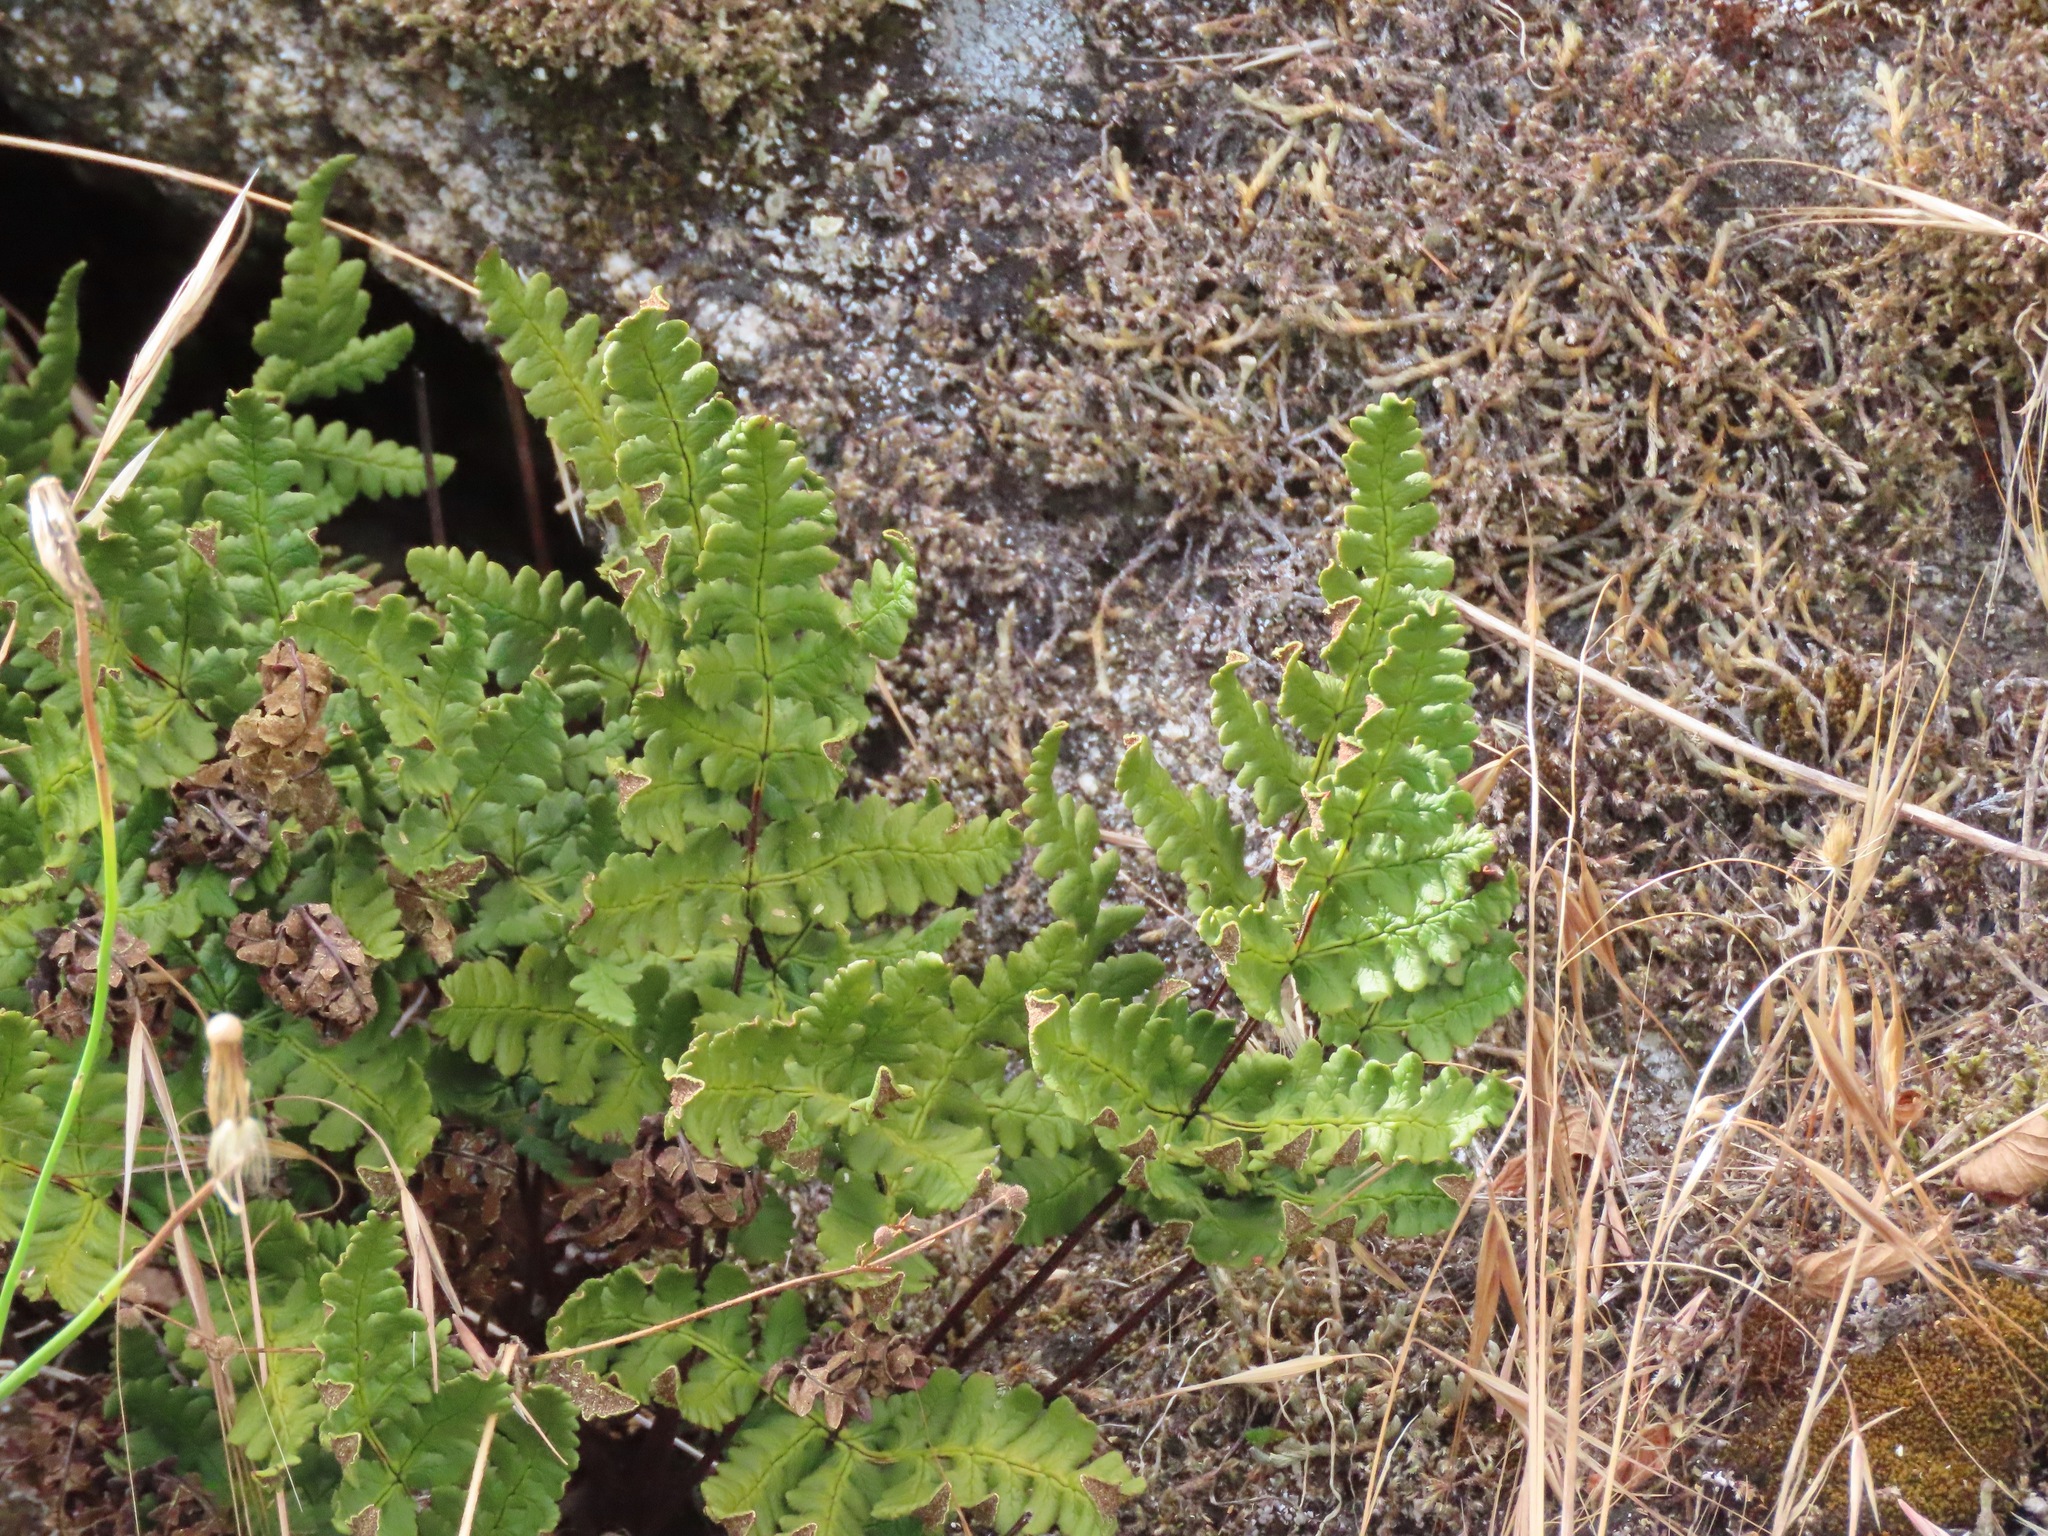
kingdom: Plantae
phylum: Tracheophyta
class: Polypodiopsida
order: Polypodiales
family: Pteridaceae
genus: Pentagramma
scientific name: Pentagramma triangularis
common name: Gold fern
